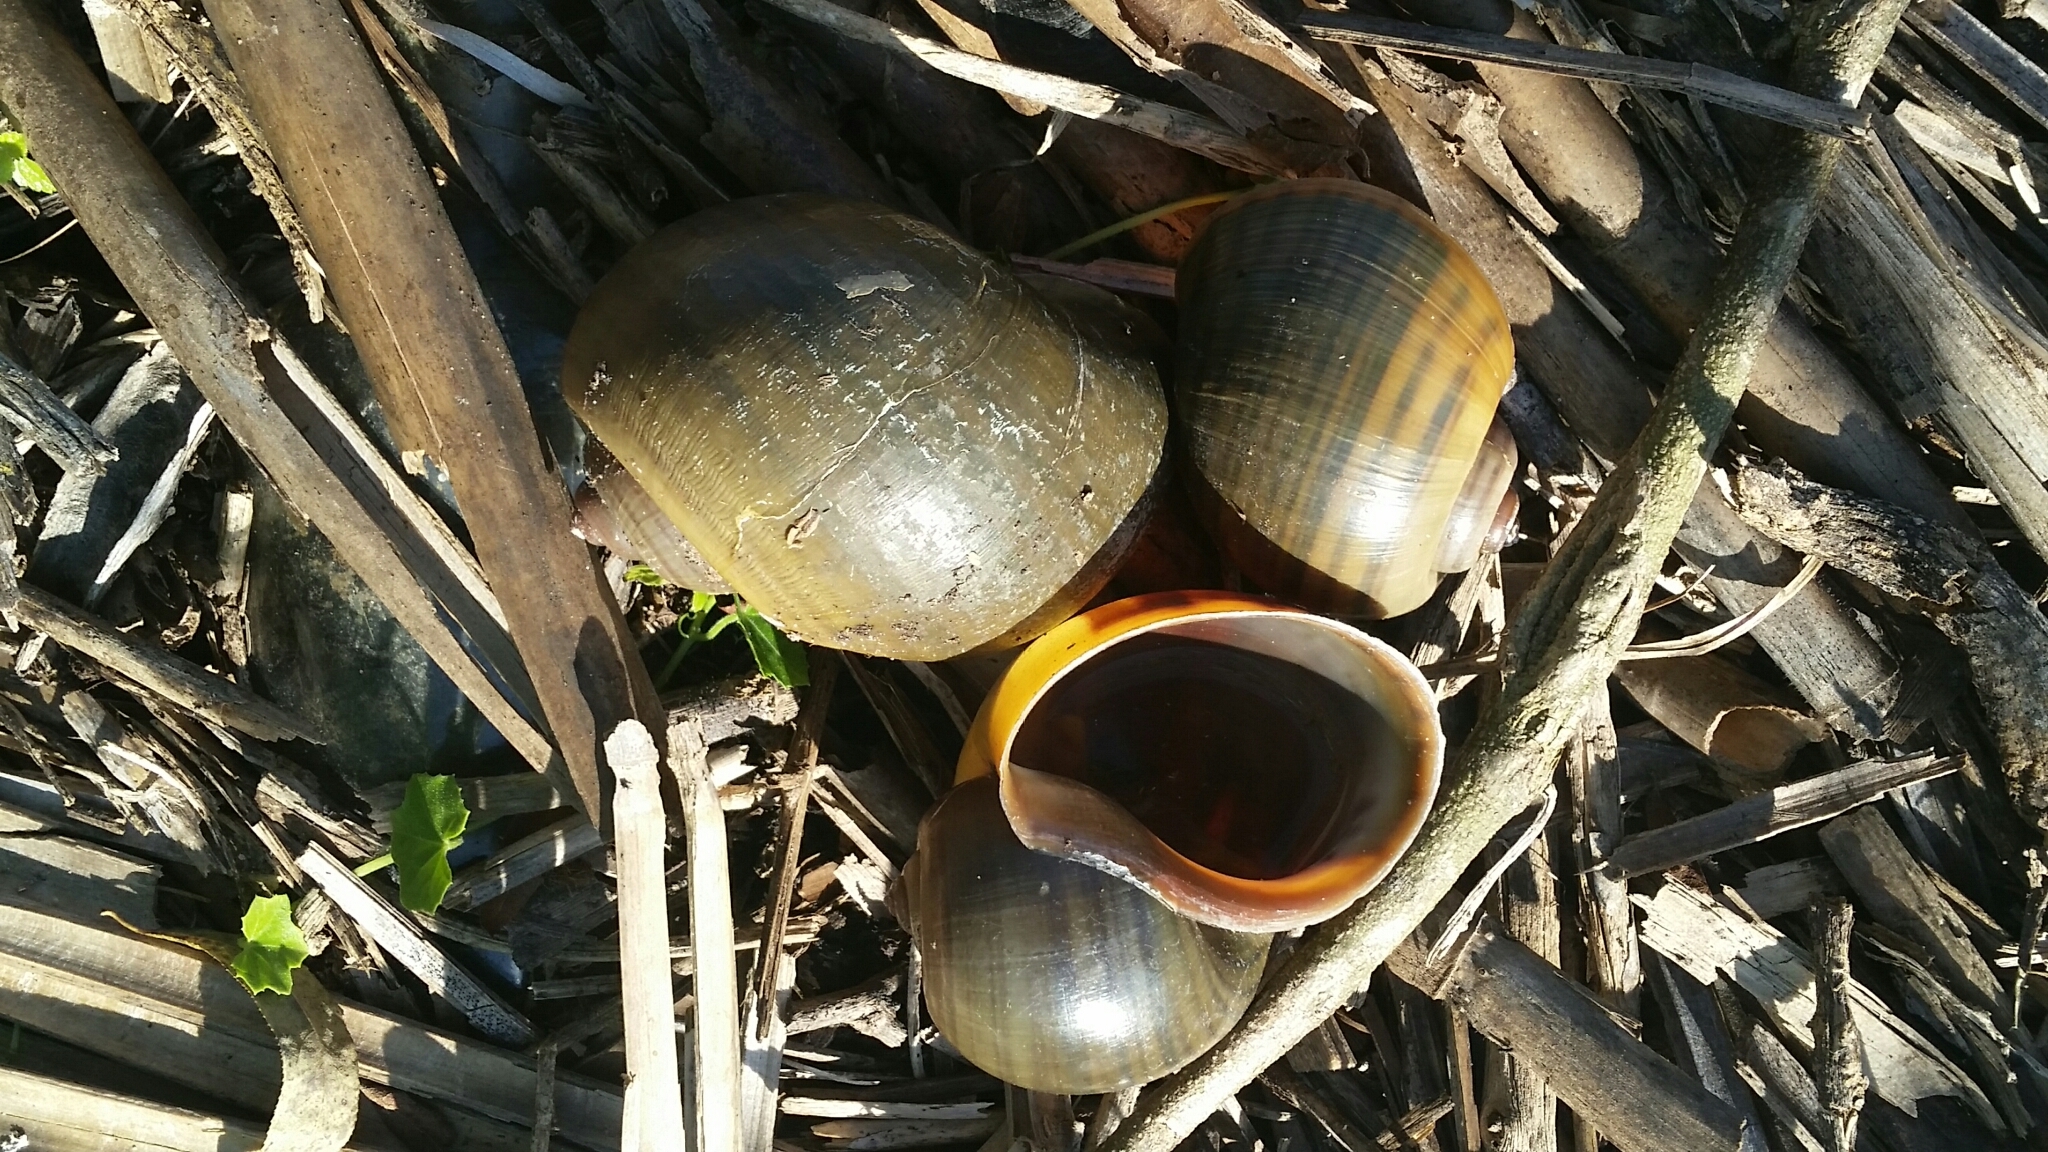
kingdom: Animalia
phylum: Mollusca
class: Gastropoda
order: Architaenioglossa
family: Ampullariidae
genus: Pomacea
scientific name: Pomacea maculata
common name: Giant applesnail
